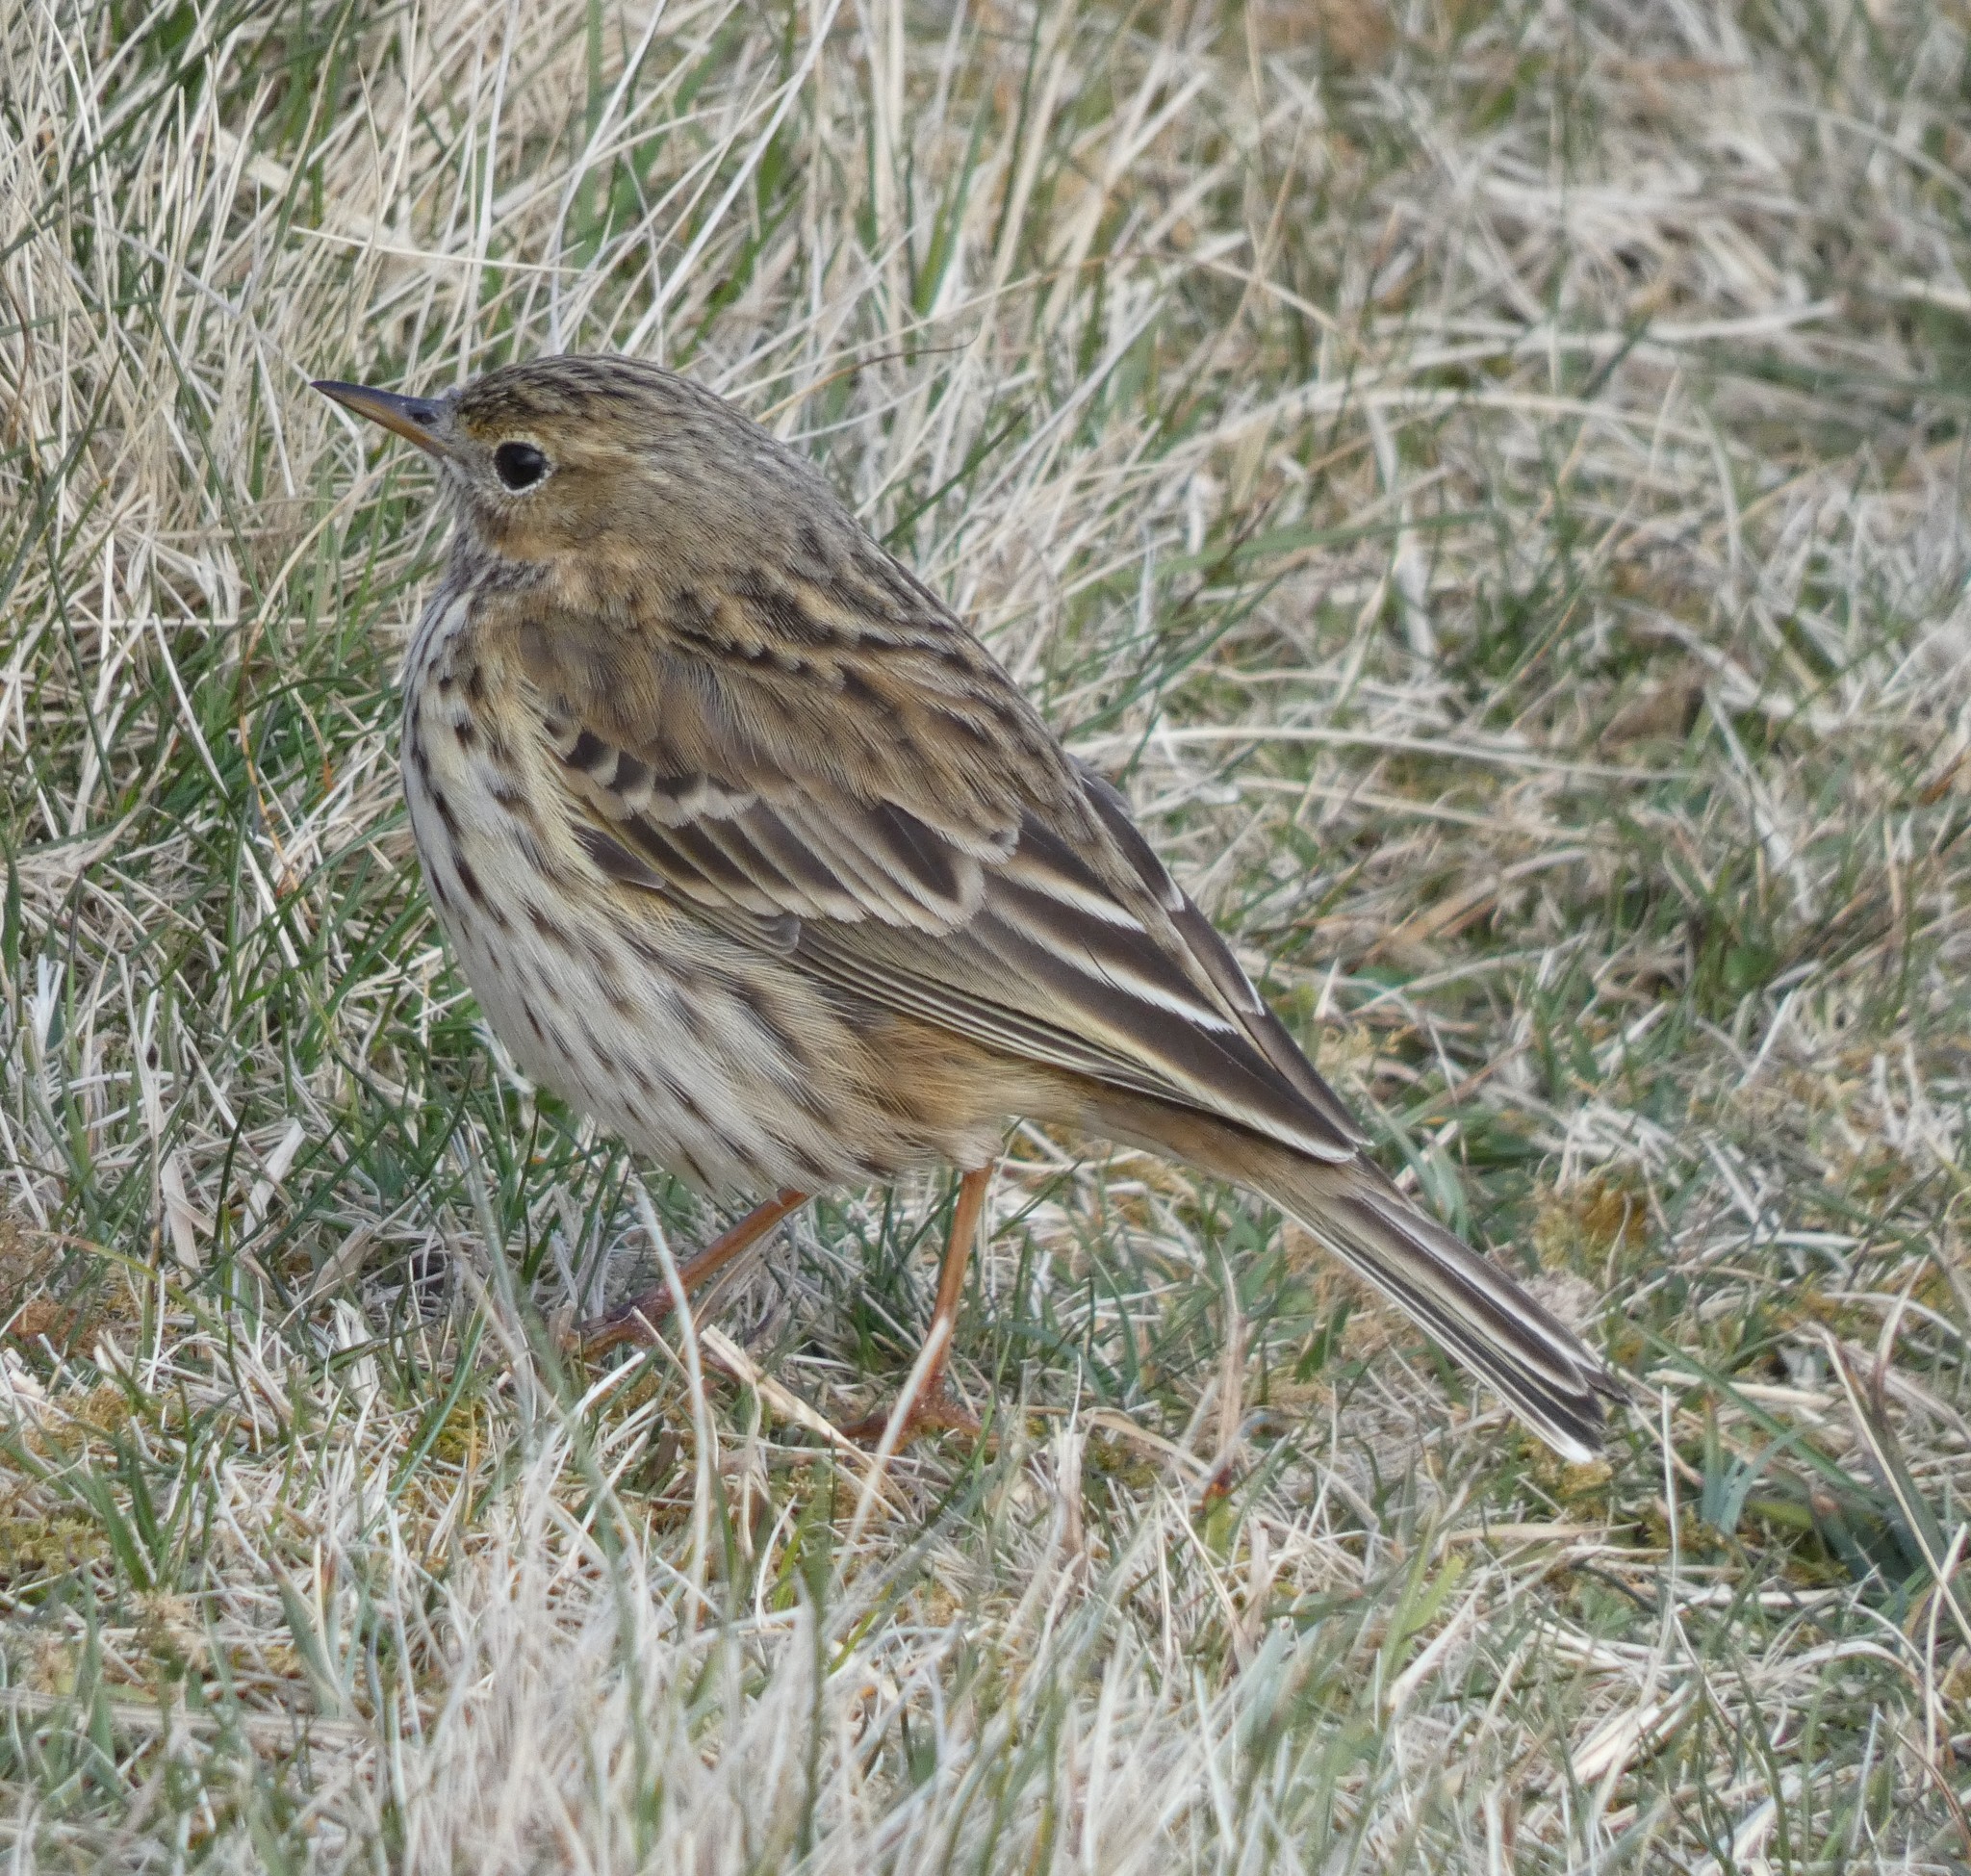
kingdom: Animalia
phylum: Chordata
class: Aves
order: Passeriformes
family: Motacillidae
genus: Anthus
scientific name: Anthus pratensis
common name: Meadow pipit
